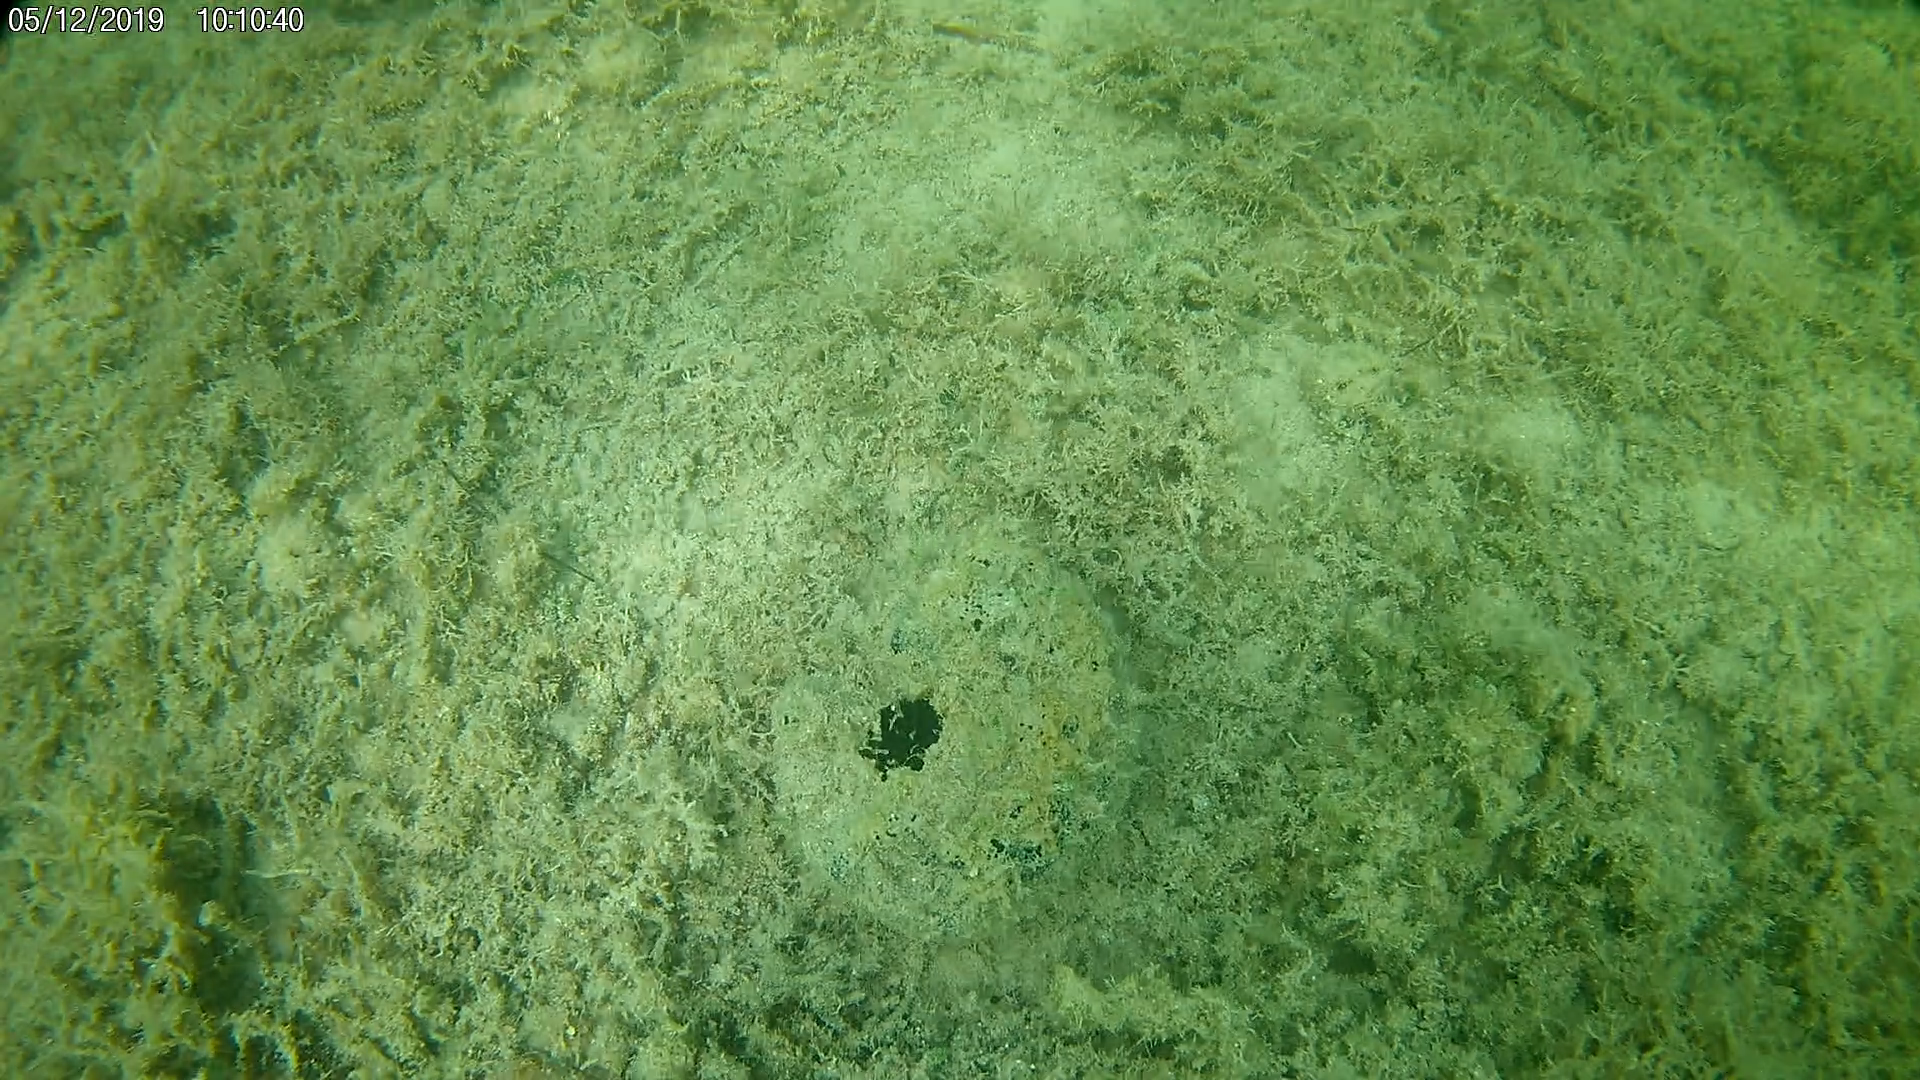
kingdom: Animalia
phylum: Porifera
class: Demospongiae
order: Clionaida
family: Clionaidae
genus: Spheciospongia
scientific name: Spheciospongia vesparium
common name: Manjack
